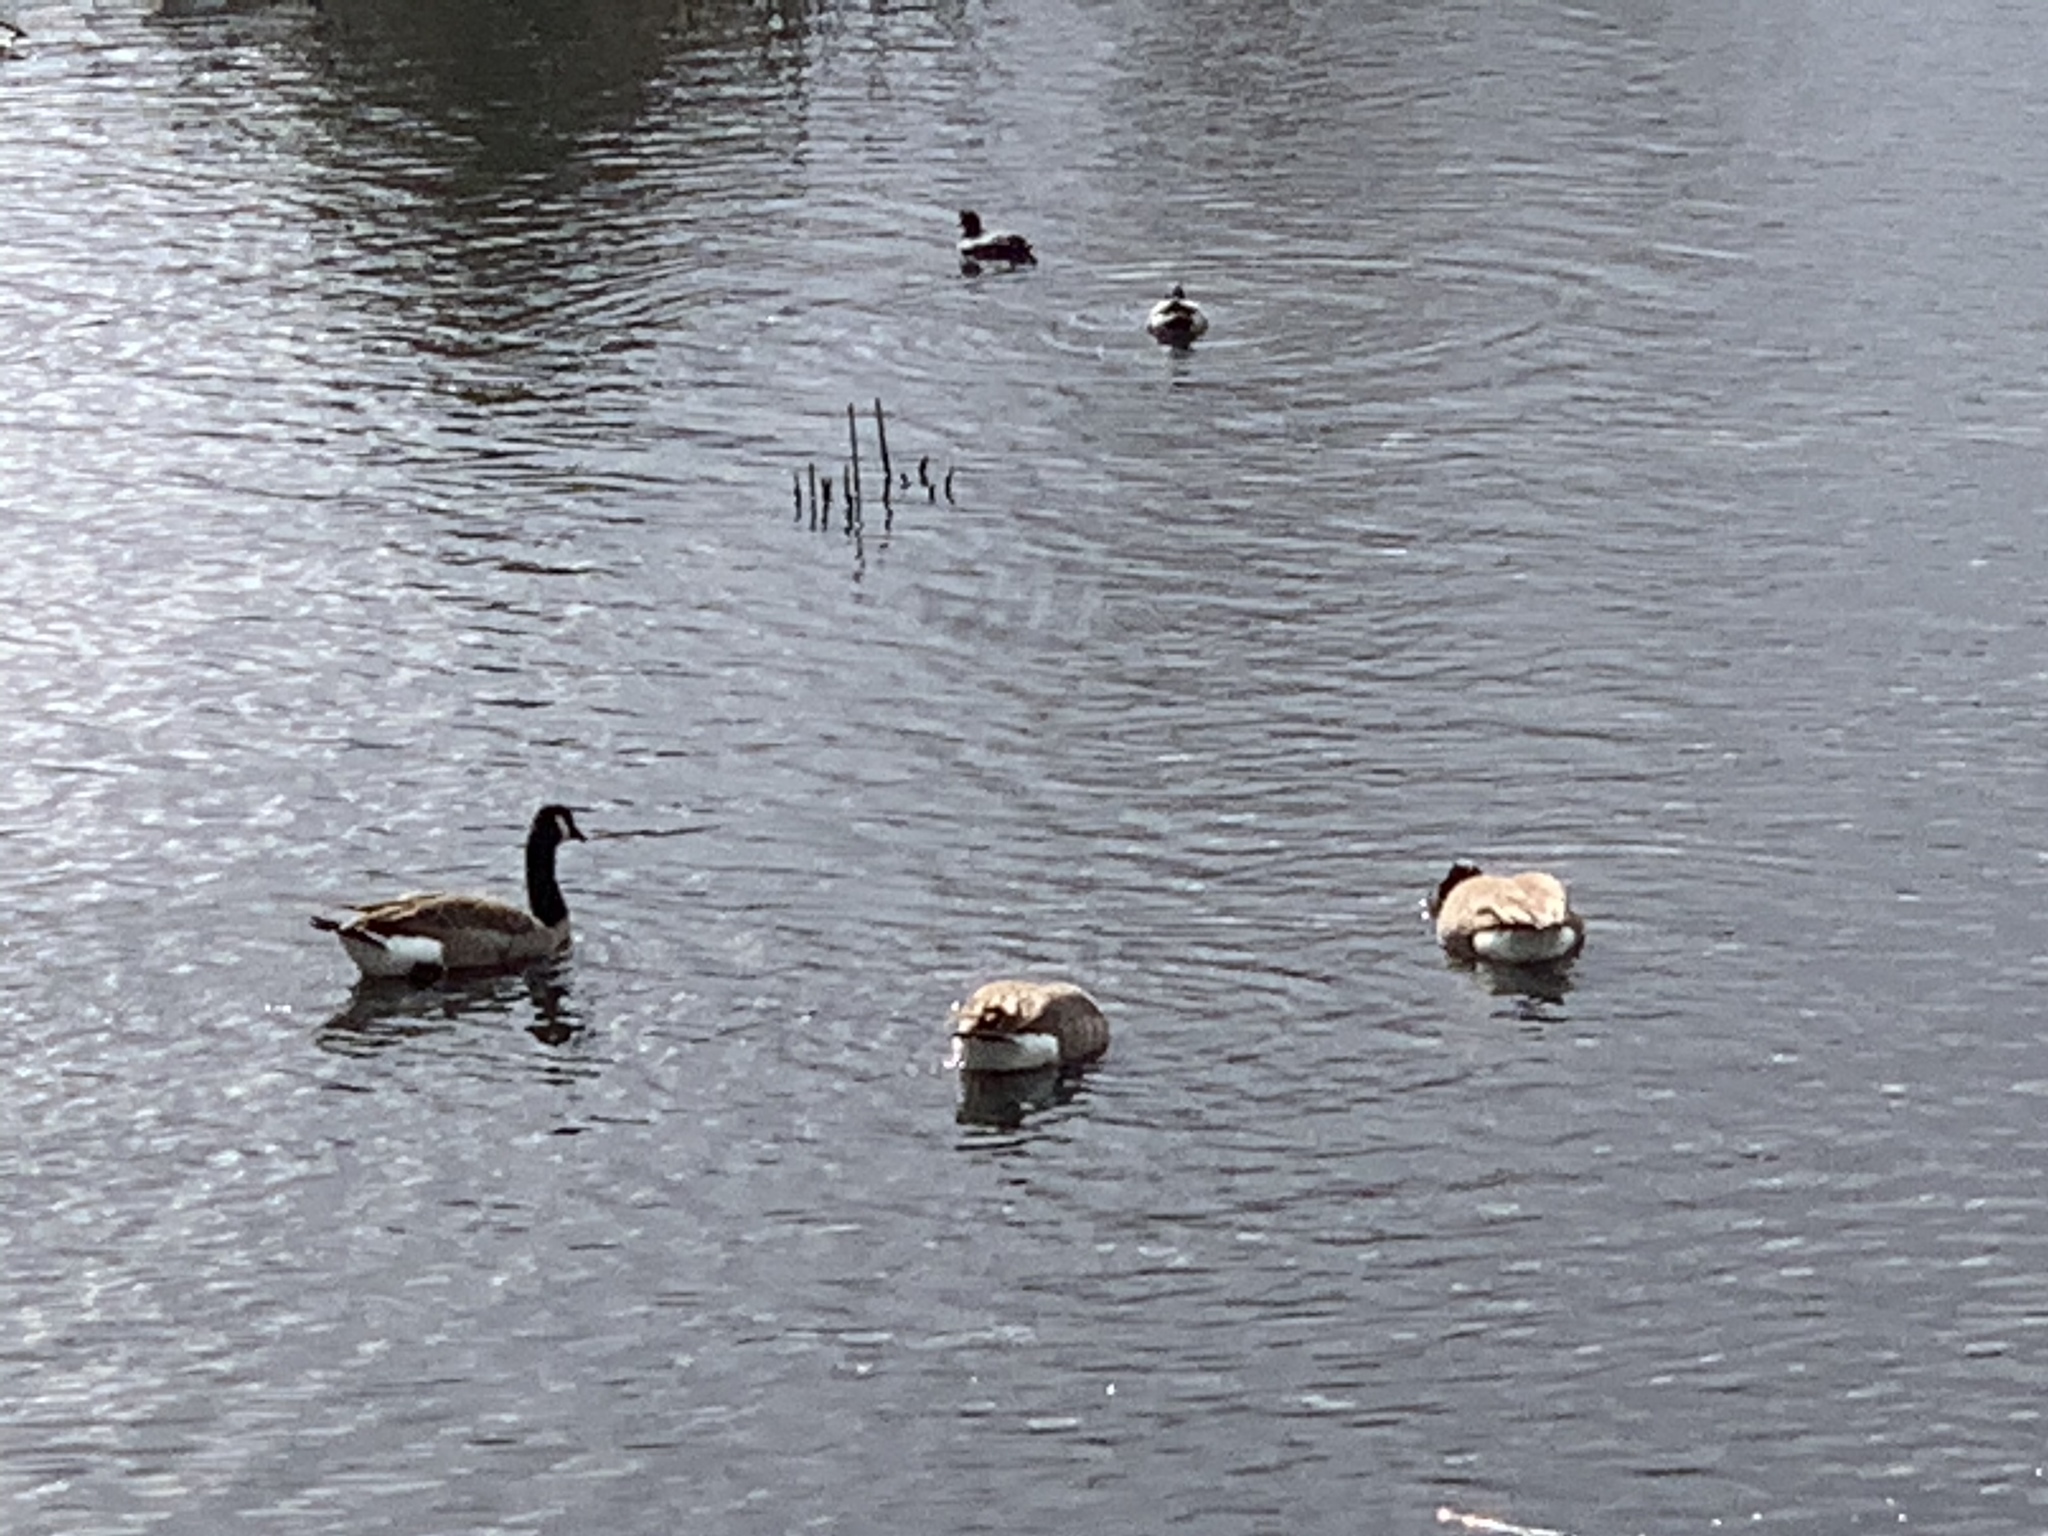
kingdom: Animalia
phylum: Chordata
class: Aves
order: Anseriformes
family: Anatidae
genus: Branta
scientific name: Branta canadensis
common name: Canada goose
